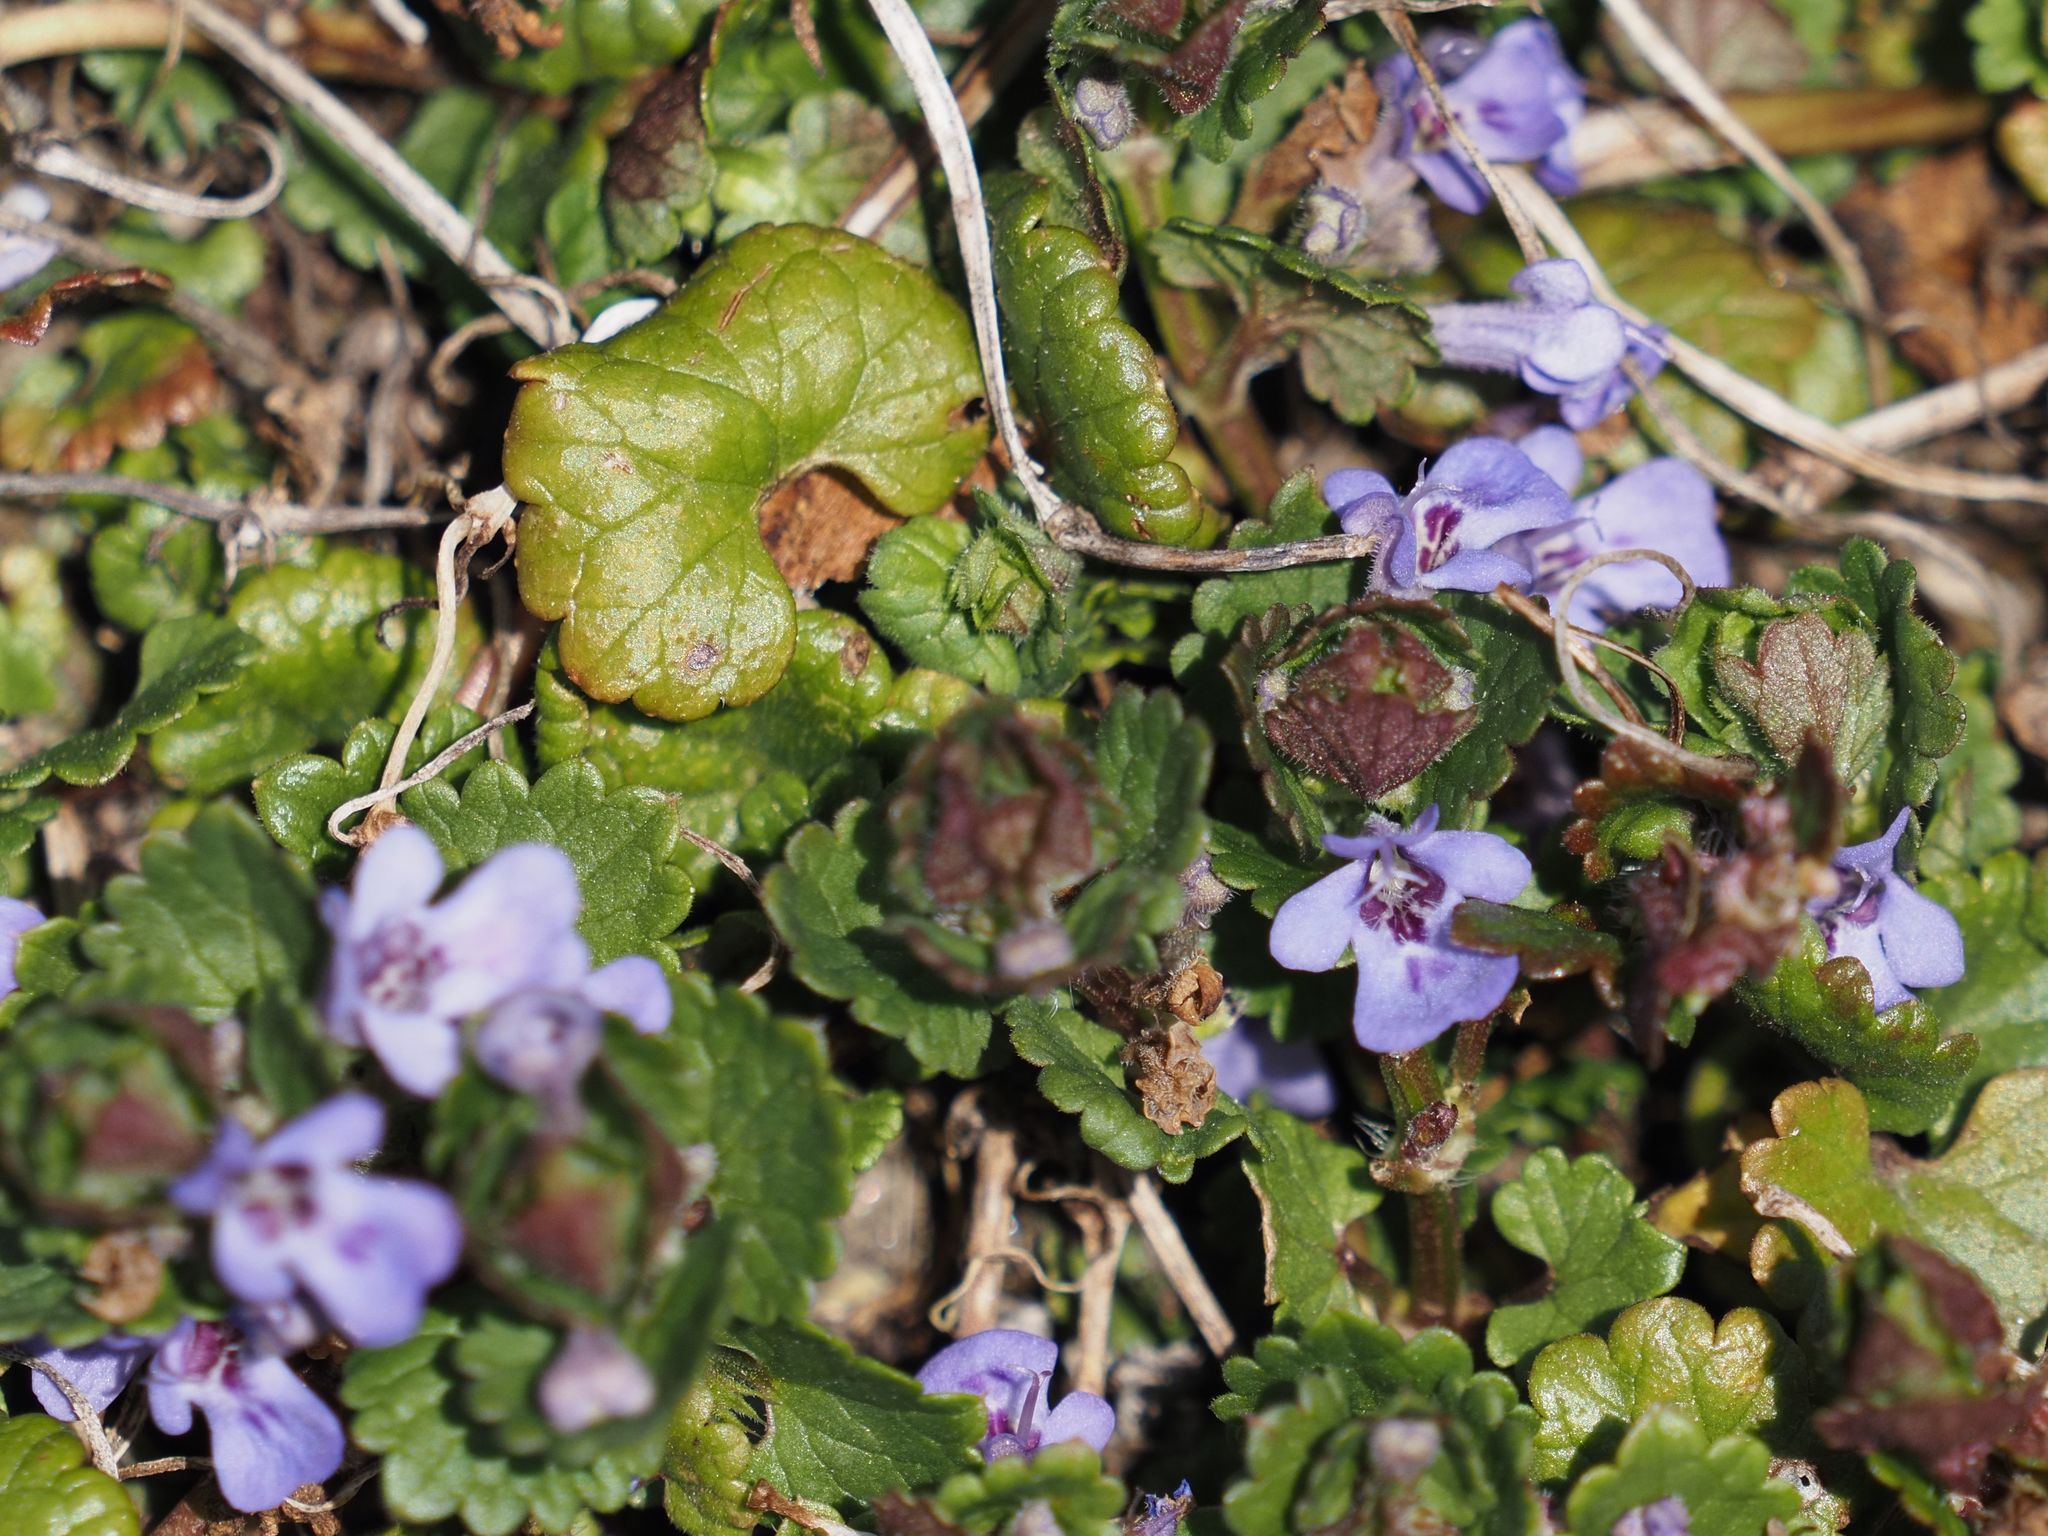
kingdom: Plantae
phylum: Tracheophyta
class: Magnoliopsida
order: Lamiales
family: Lamiaceae
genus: Glechoma
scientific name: Glechoma hederacea
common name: Ground ivy
